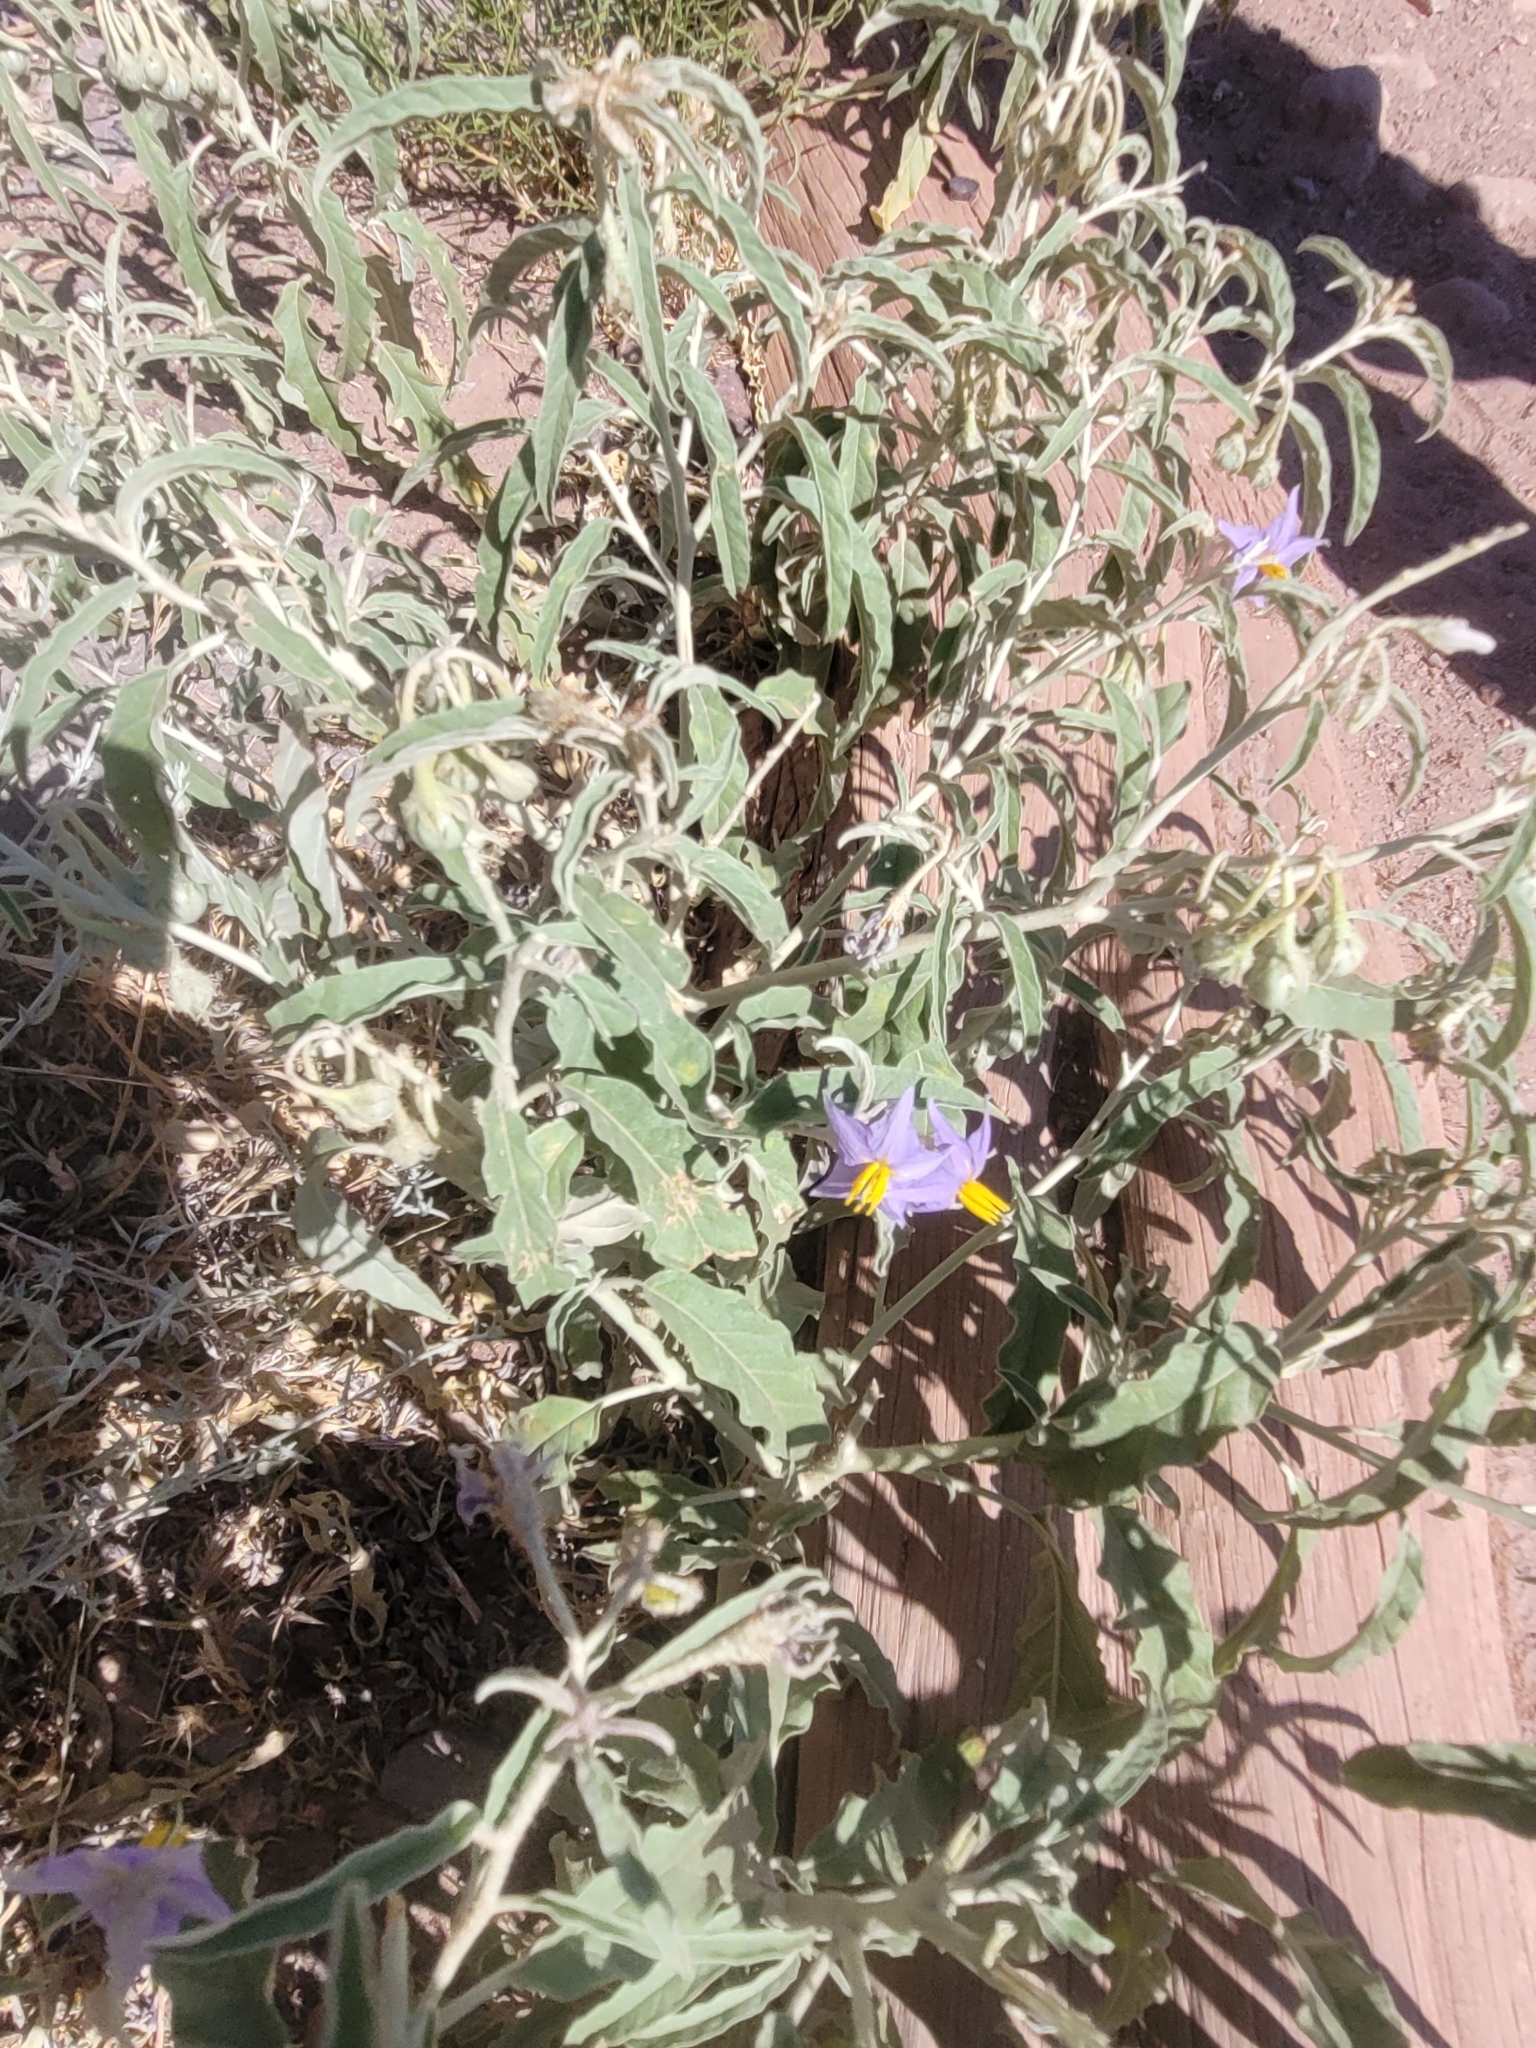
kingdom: Plantae
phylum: Tracheophyta
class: Magnoliopsida
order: Solanales
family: Solanaceae
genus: Solanum
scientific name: Solanum elaeagnifolium
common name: Silverleaf nightshade
